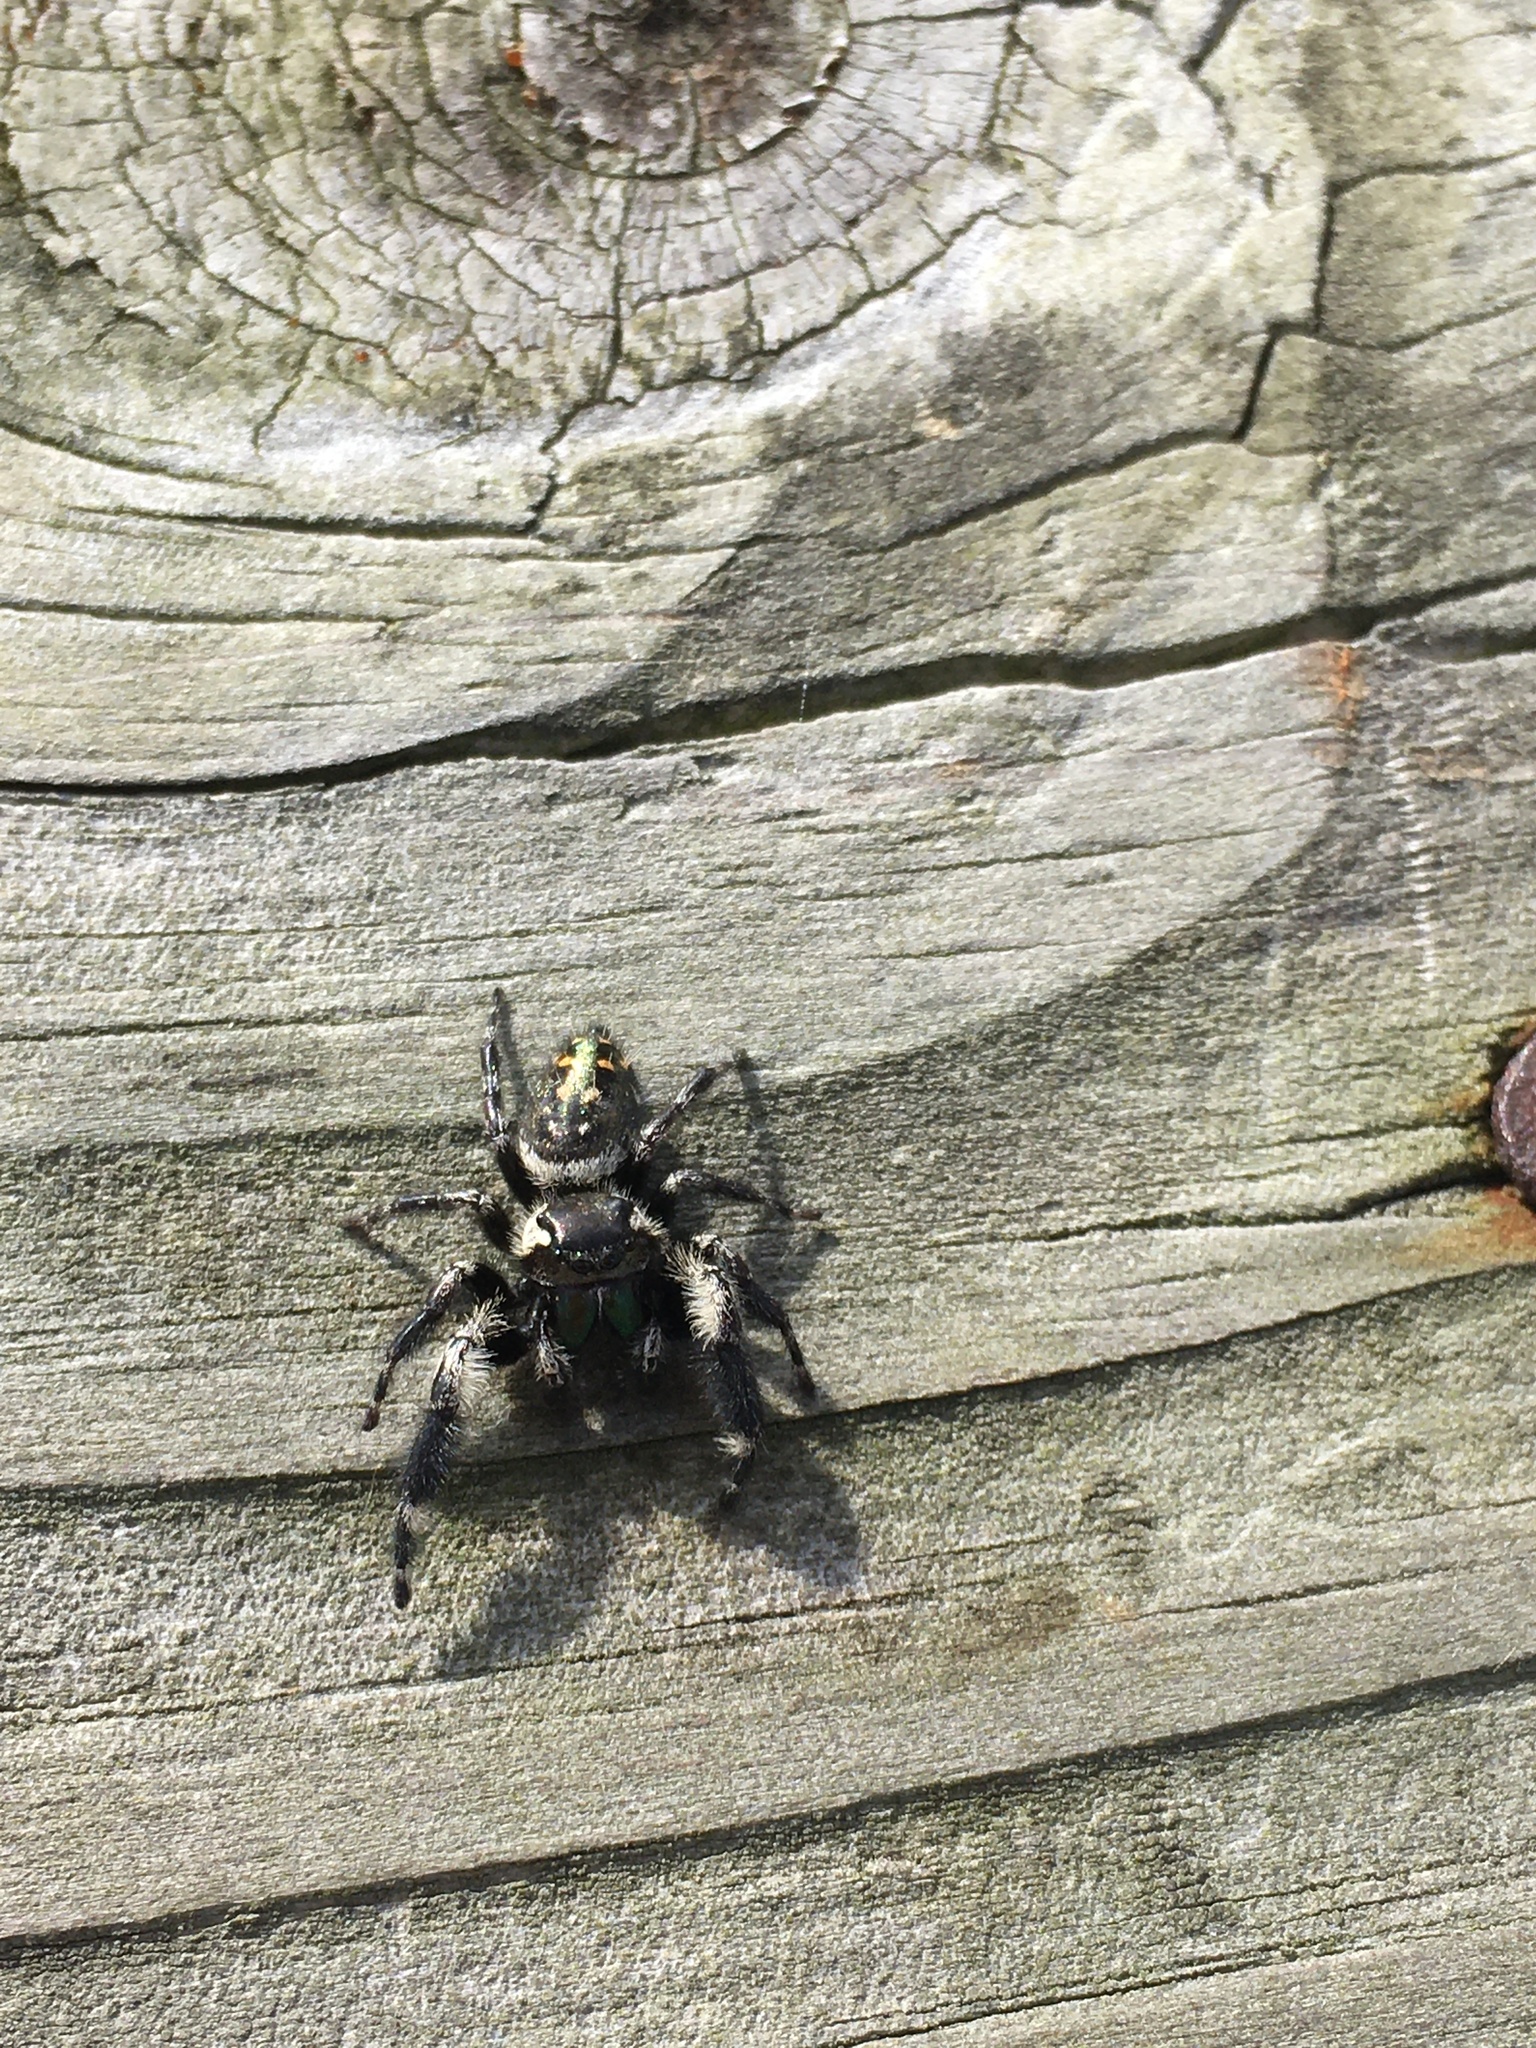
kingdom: Animalia
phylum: Arthropoda
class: Arachnida
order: Araneae
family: Salticidae
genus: Phidippus
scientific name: Phidippus otiosus
